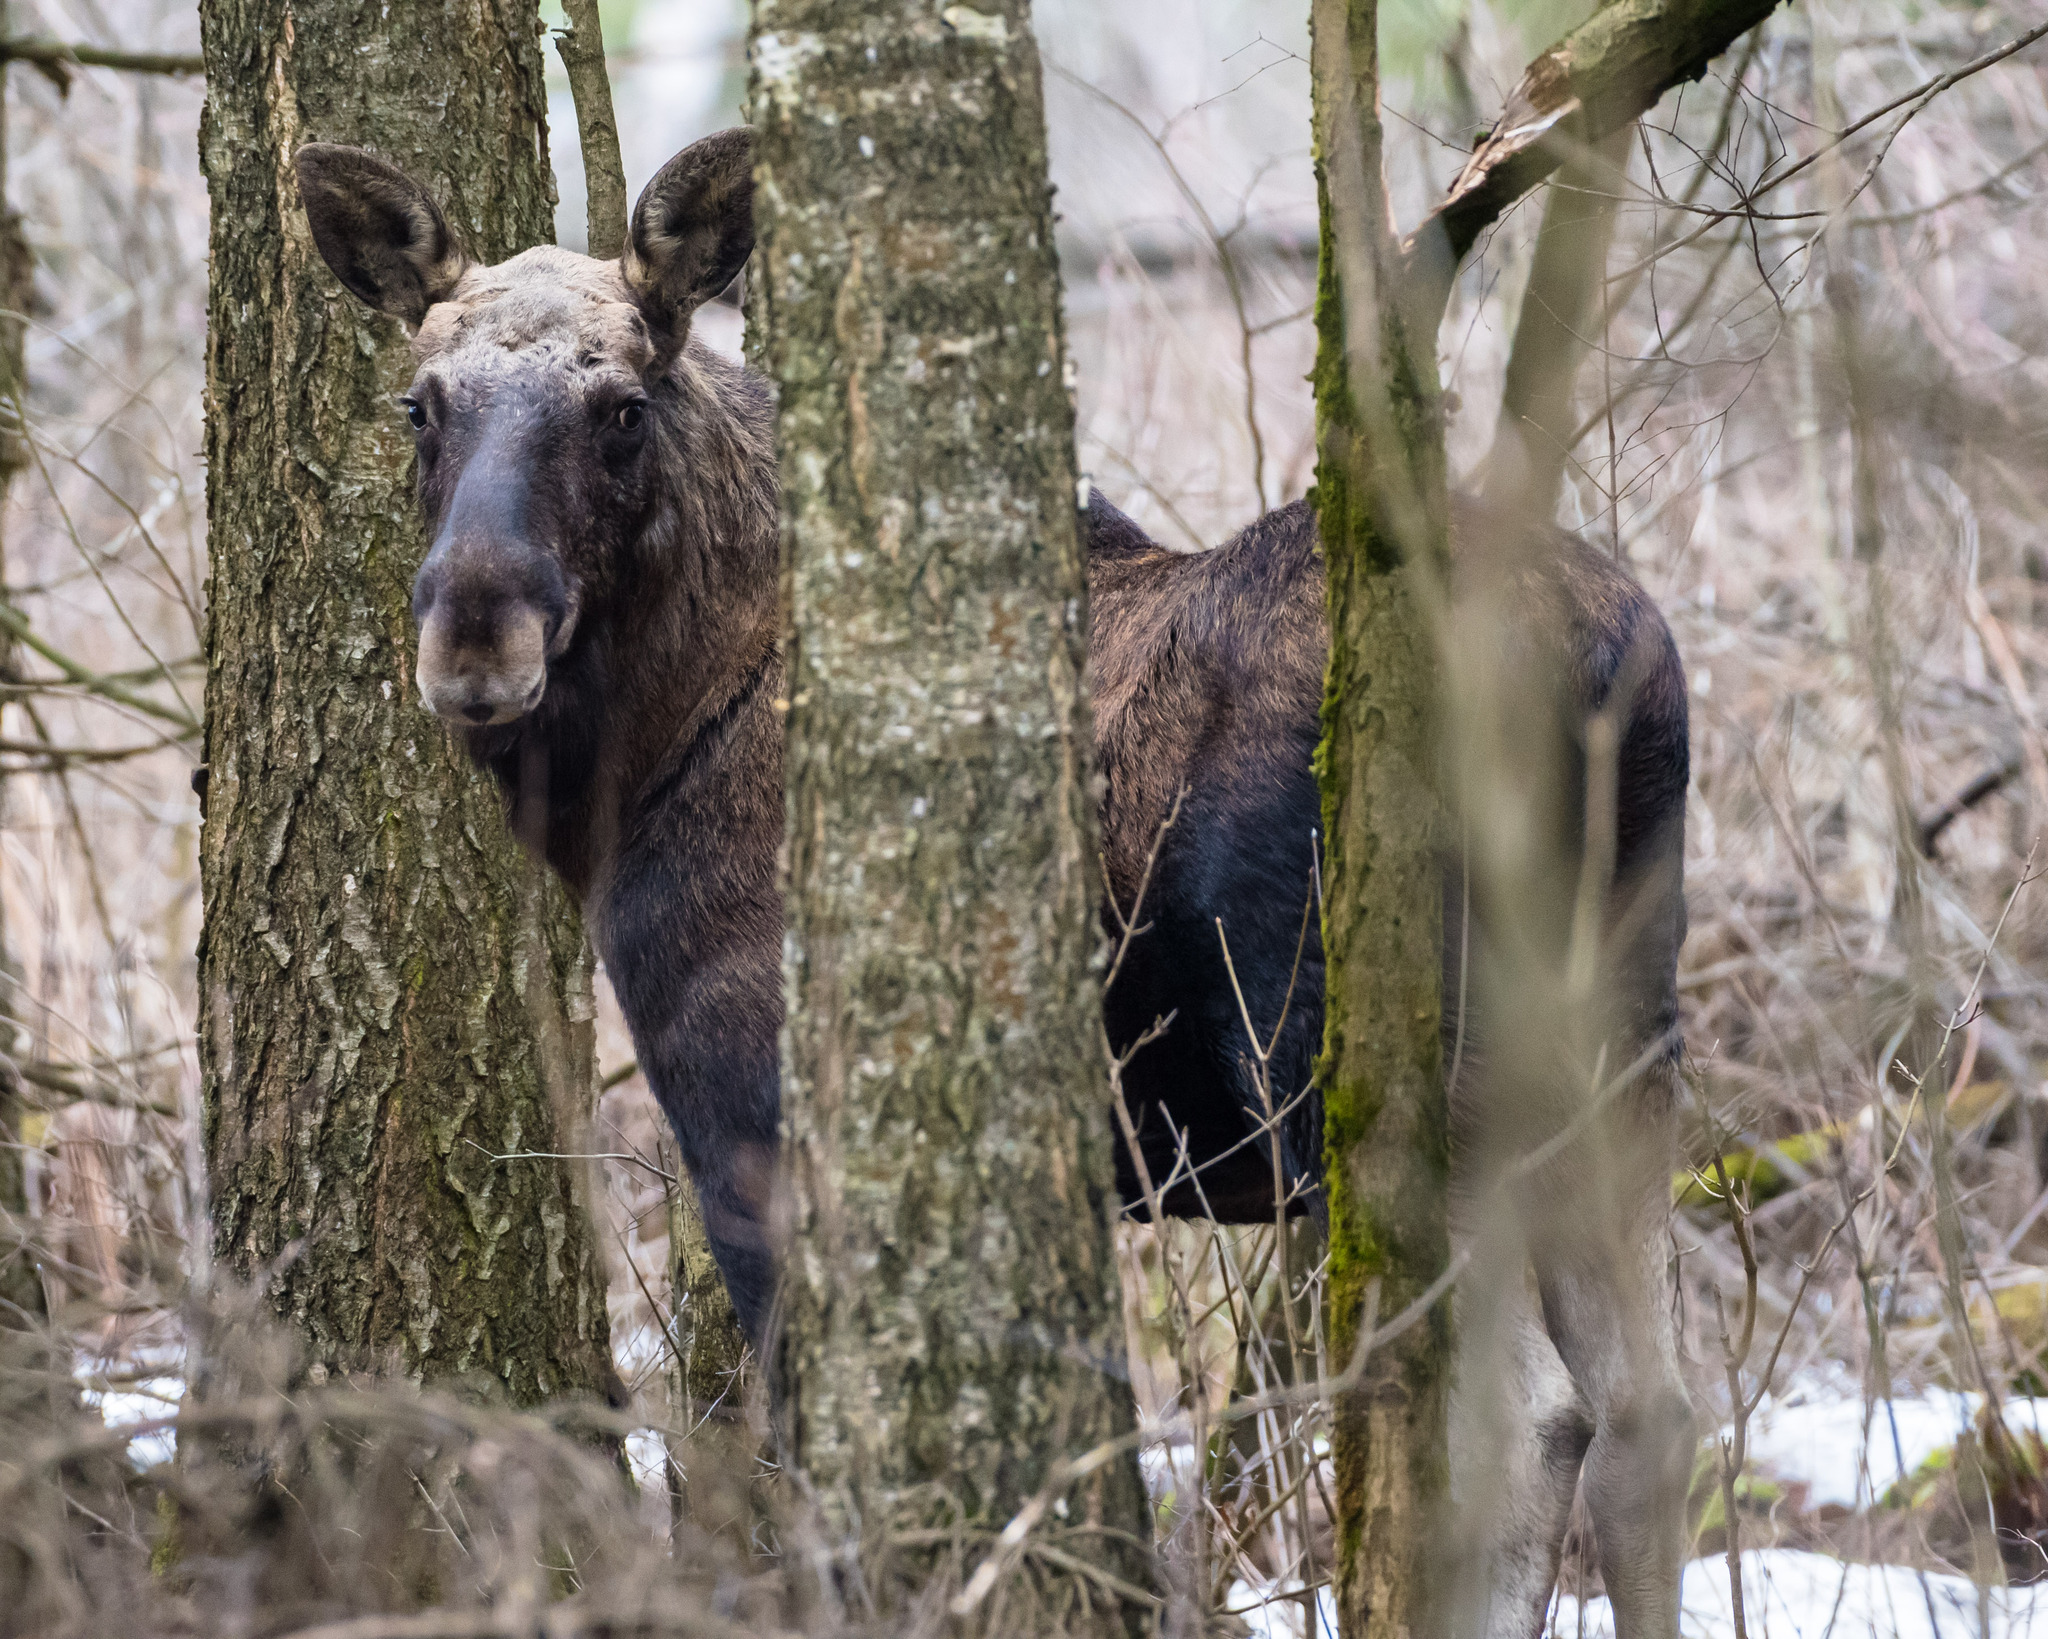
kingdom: Animalia
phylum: Chordata
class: Mammalia
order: Artiodactyla
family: Cervidae
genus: Alces
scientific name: Alces alces
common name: Moose
